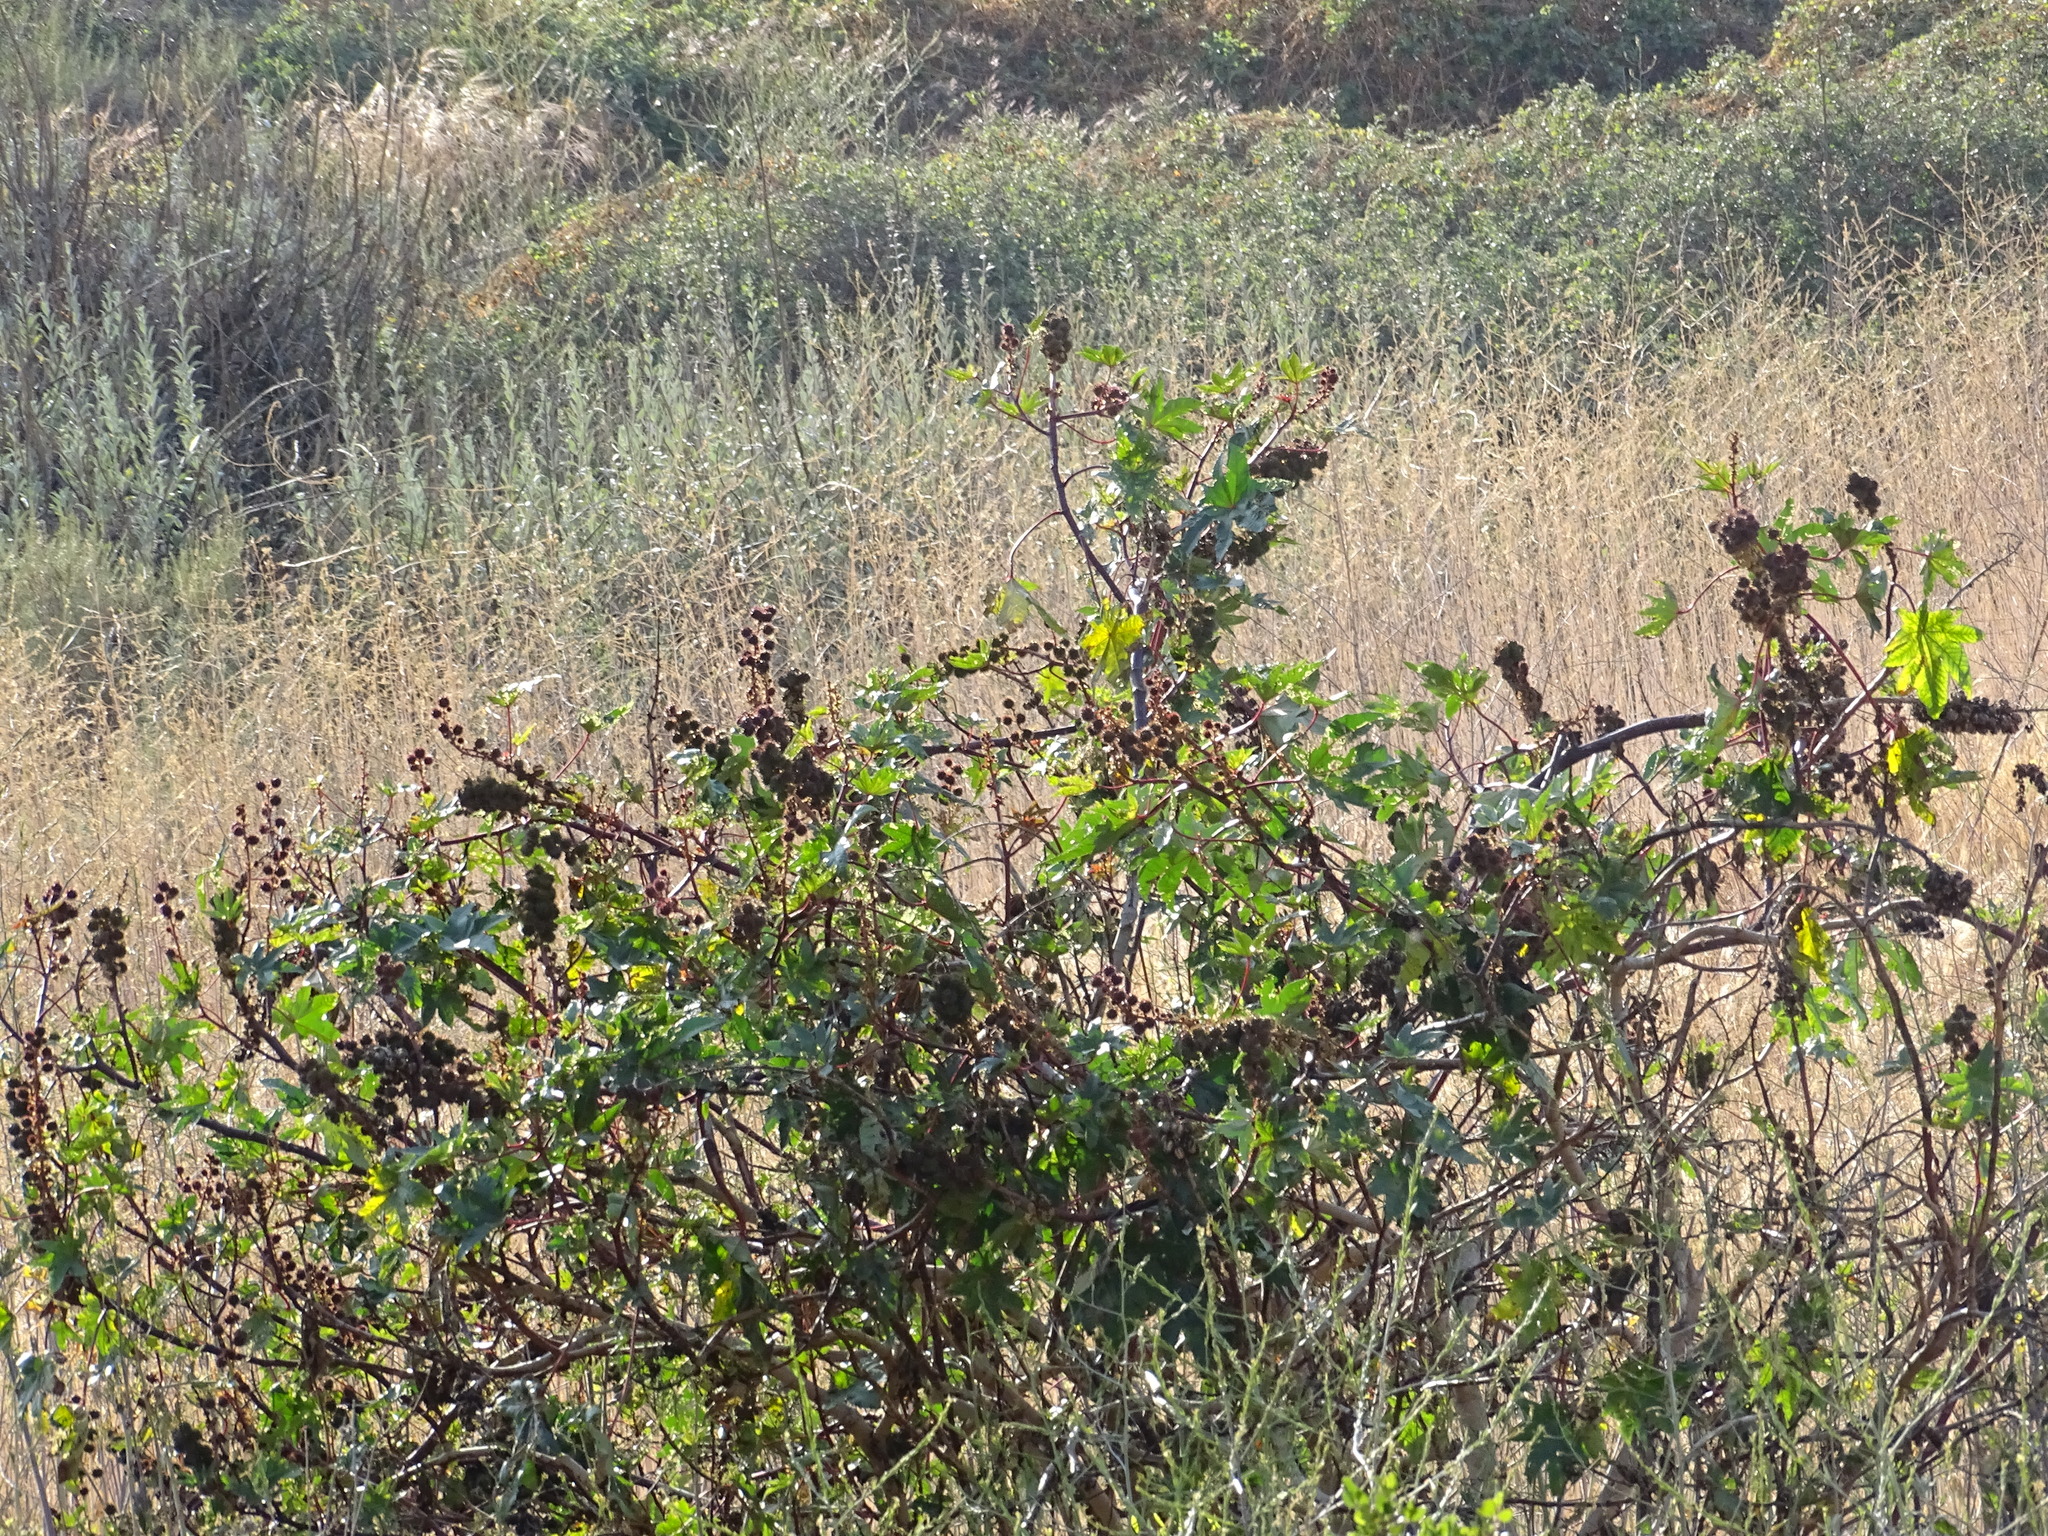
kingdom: Plantae
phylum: Tracheophyta
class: Magnoliopsida
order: Malpighiales
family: Euphorbiaceae
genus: Ricinus
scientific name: Ricinus communis
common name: Castor-oil-plant
